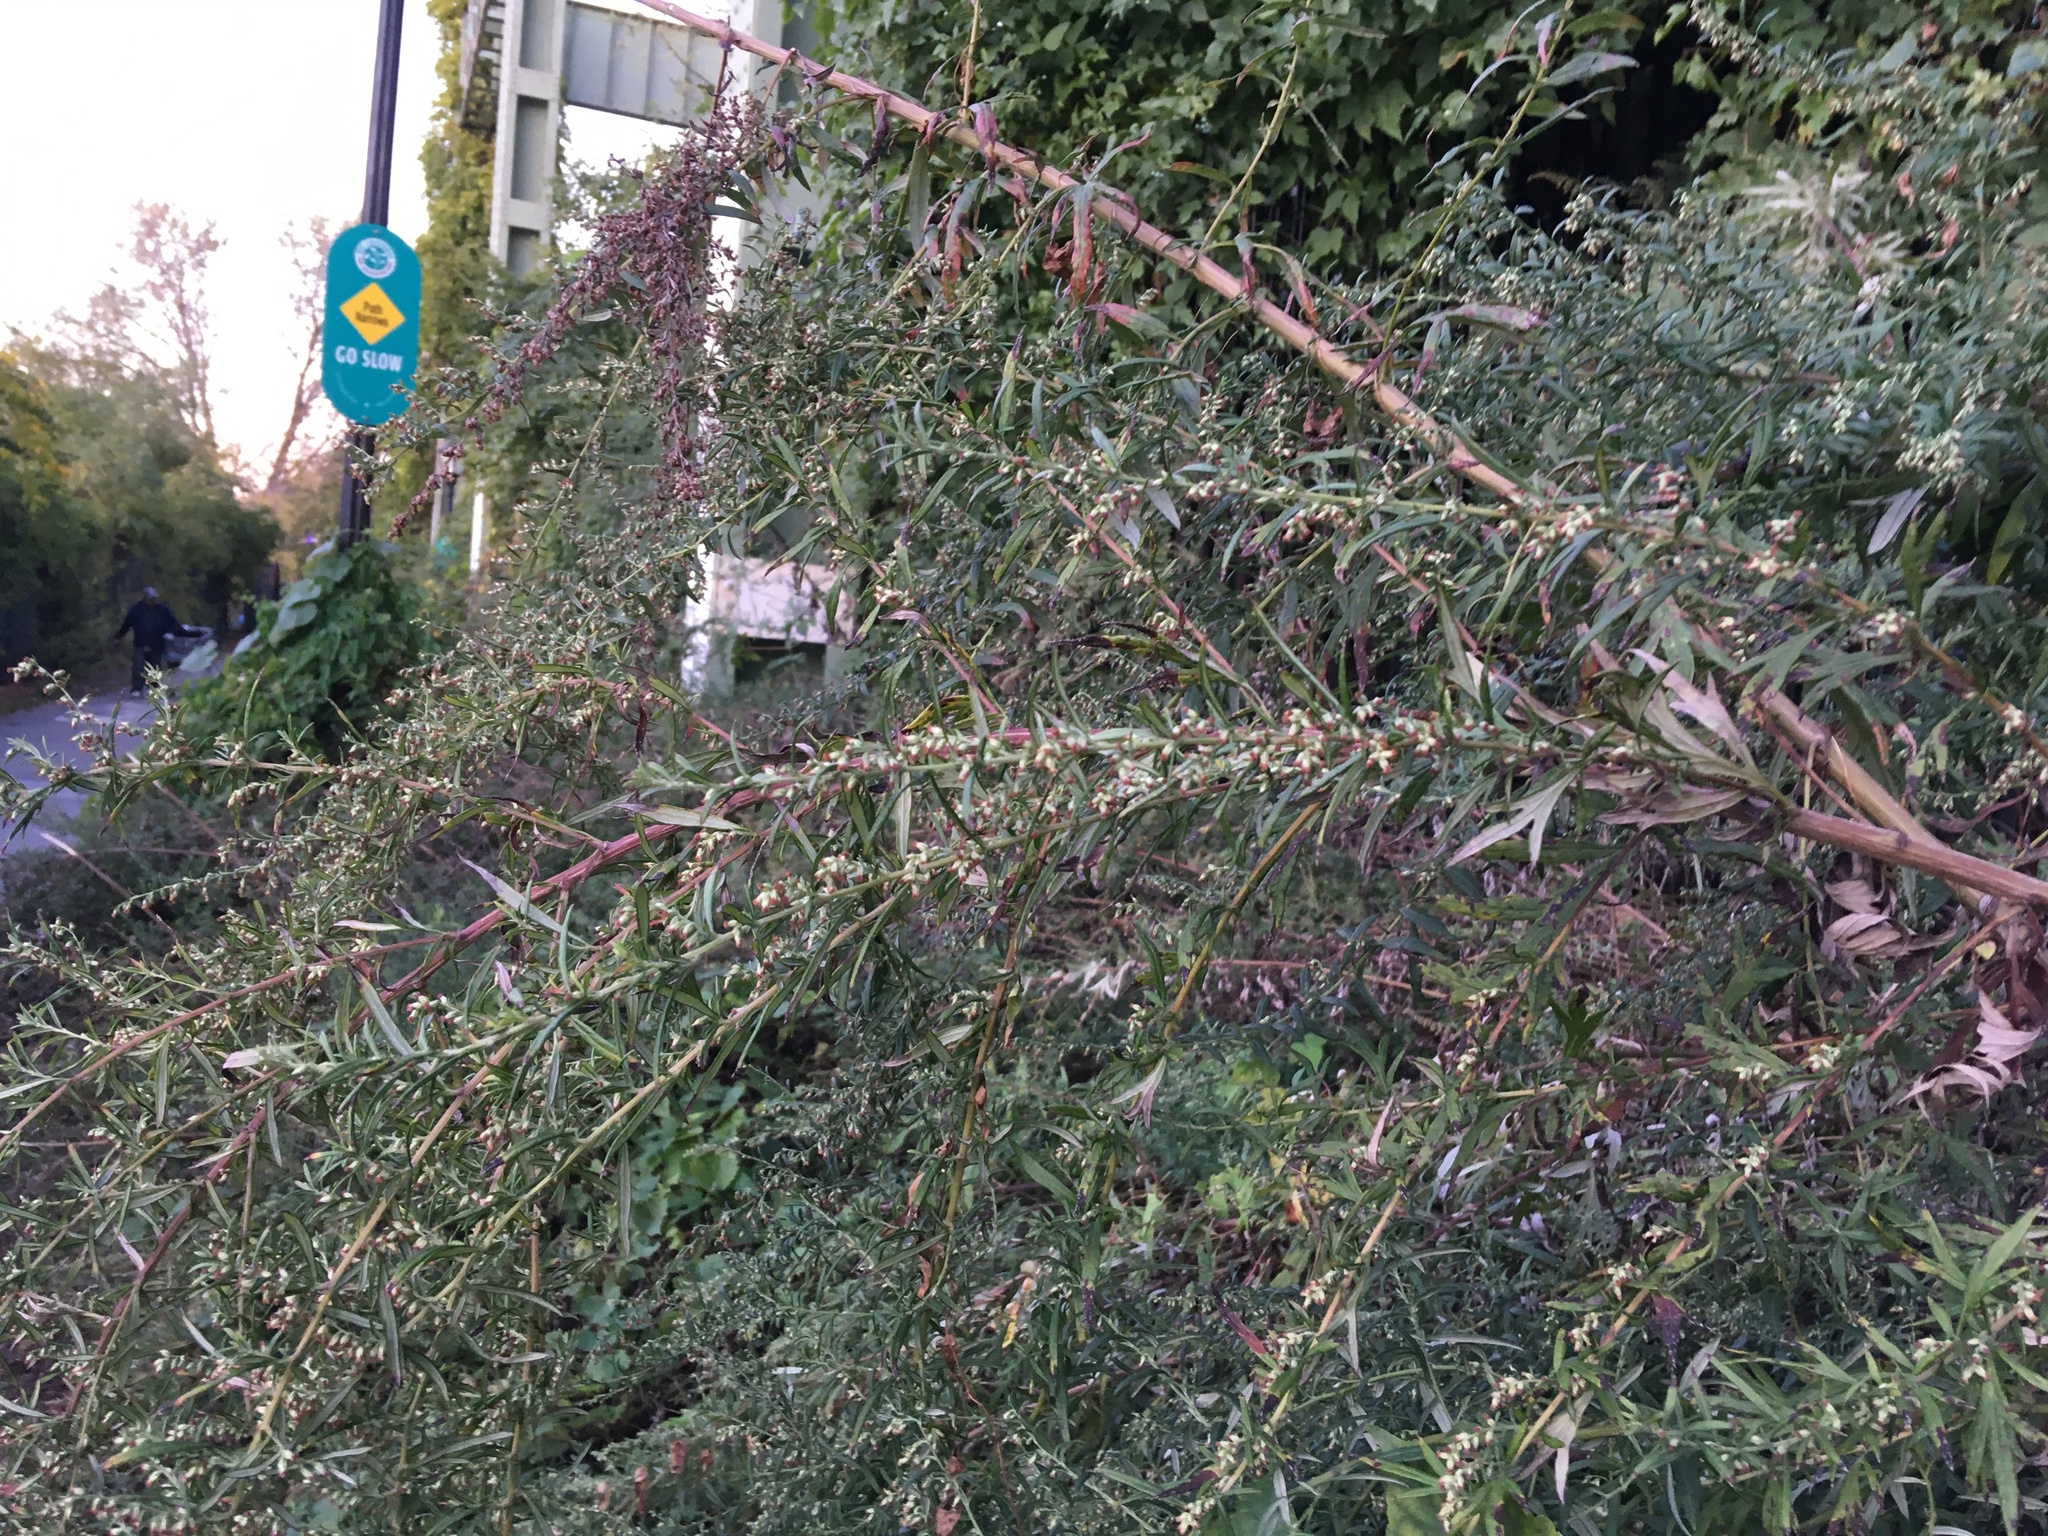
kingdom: Plantae
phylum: Tracheophyta
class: Magnoliopsida
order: Asterales
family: Asteraceae
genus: Artemisia
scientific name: Artemisia vulgaris
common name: Mugwort
